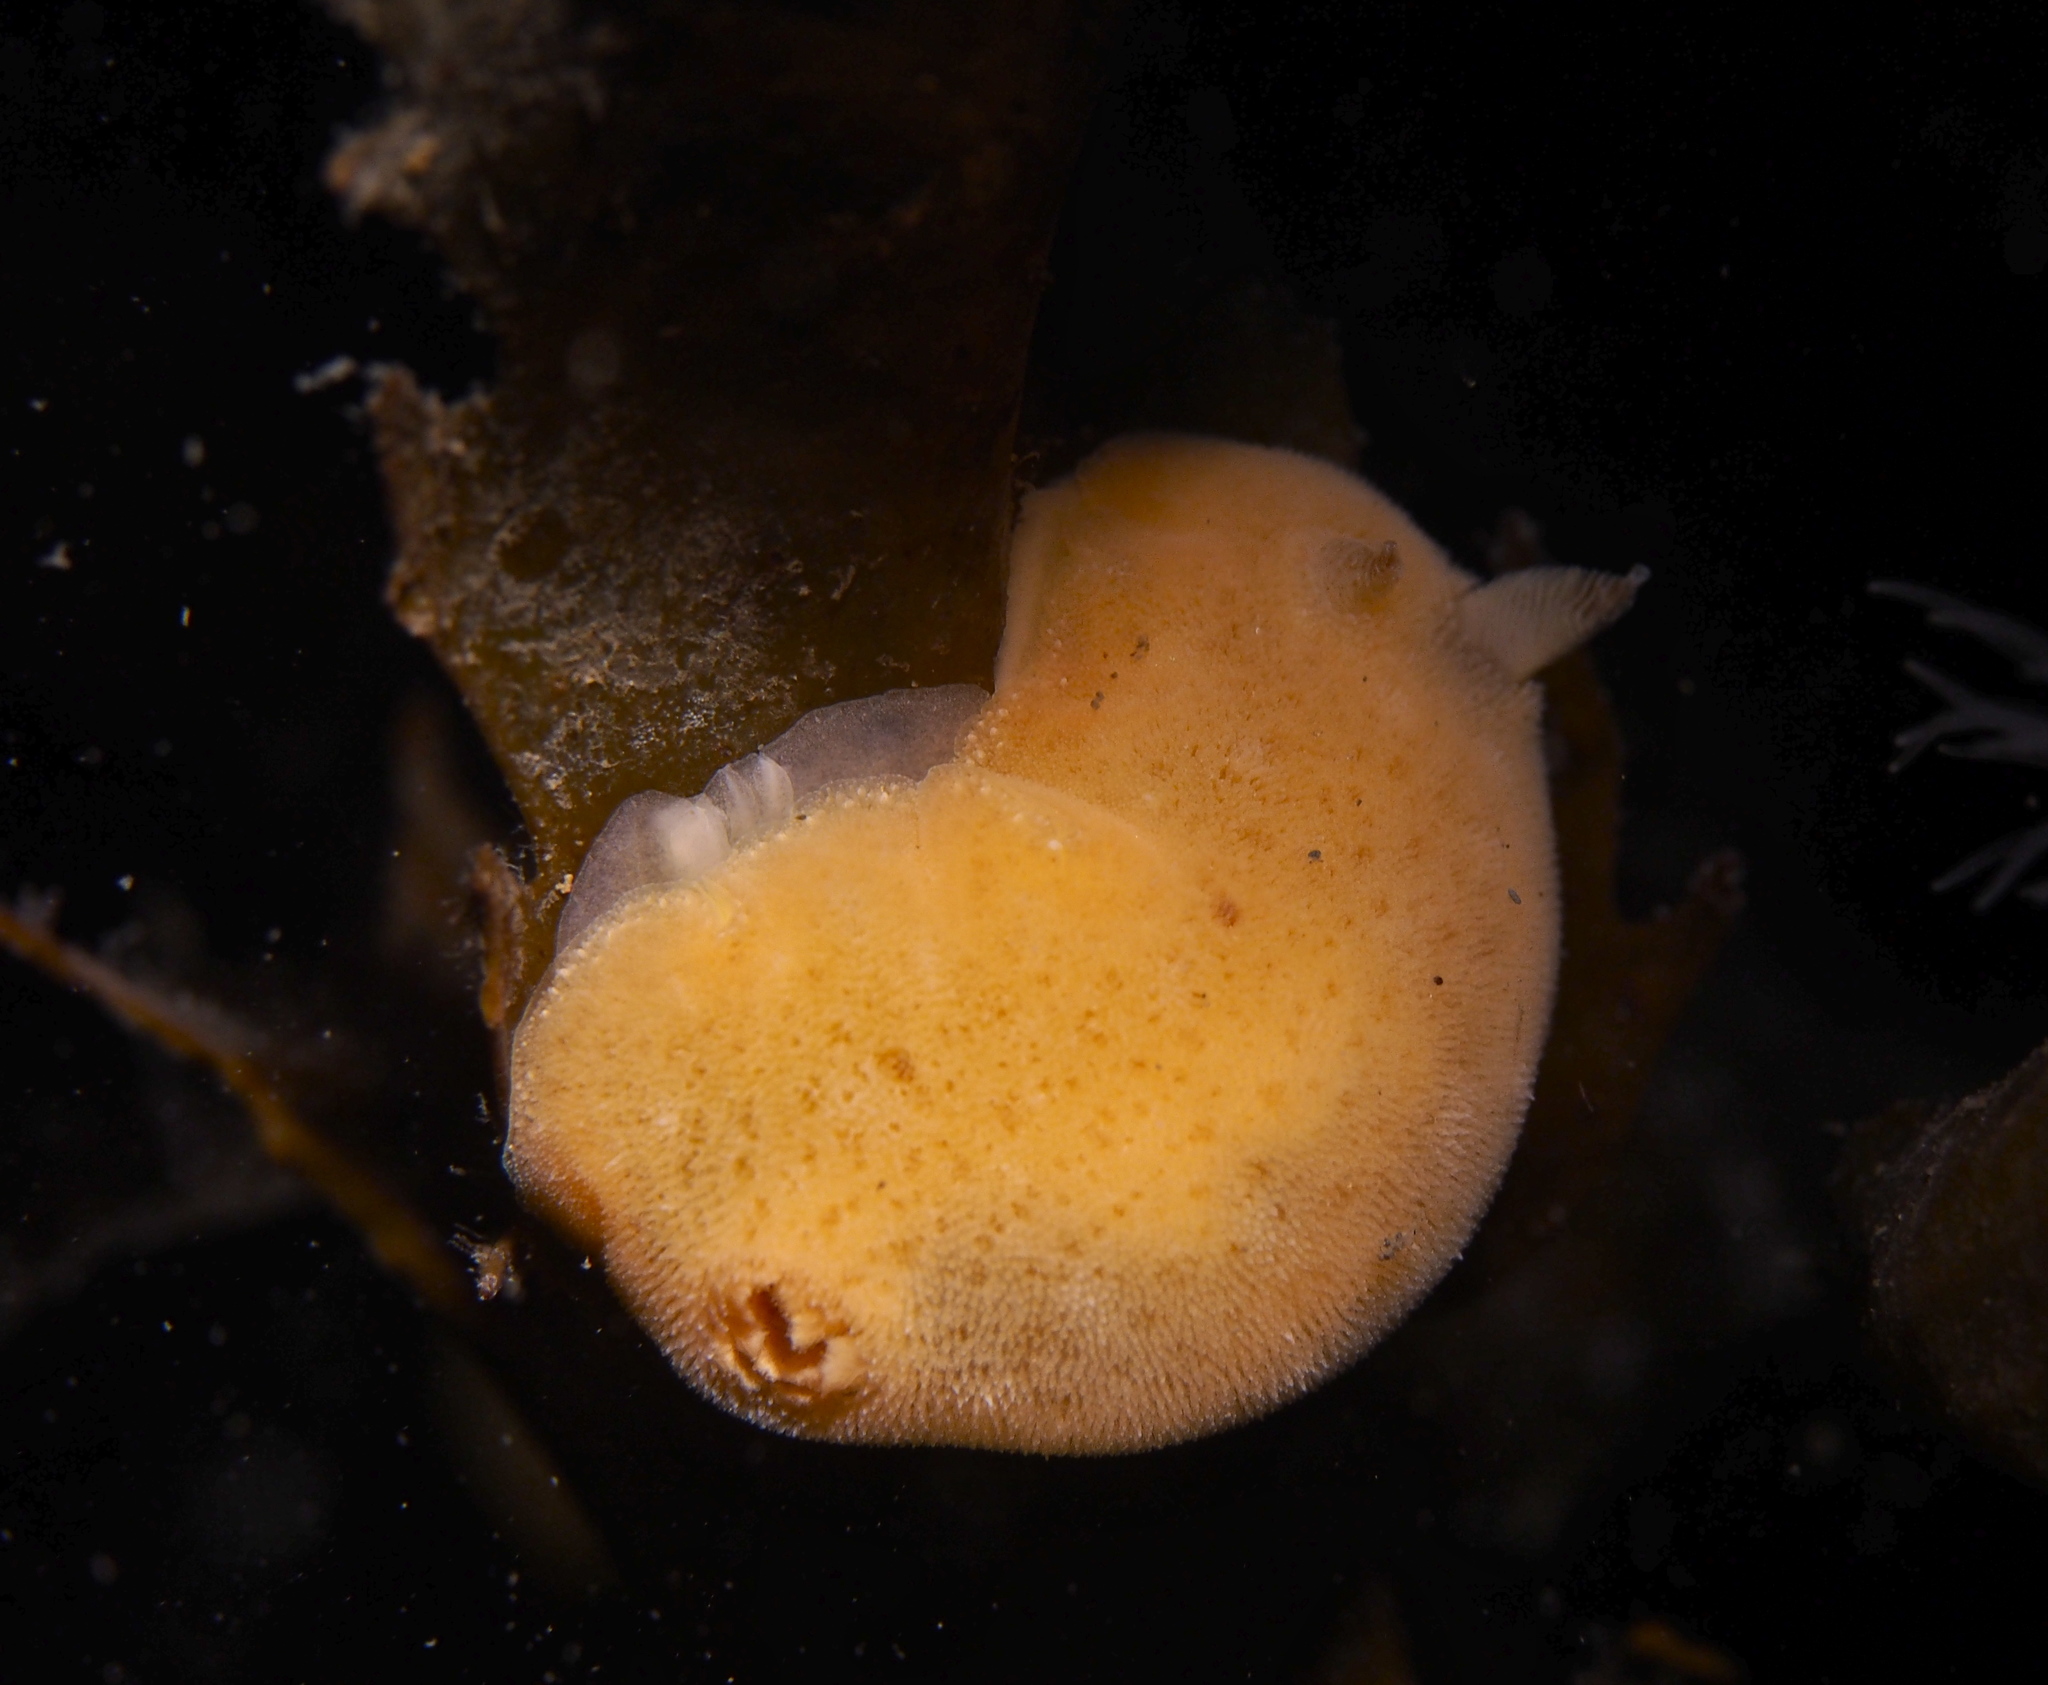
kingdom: Animalia
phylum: Mollusca
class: Gastropoda
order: Nudibranchia
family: Discodorididae
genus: Jorunna
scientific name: Jorunna tomentosa
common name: Grey sea slug
